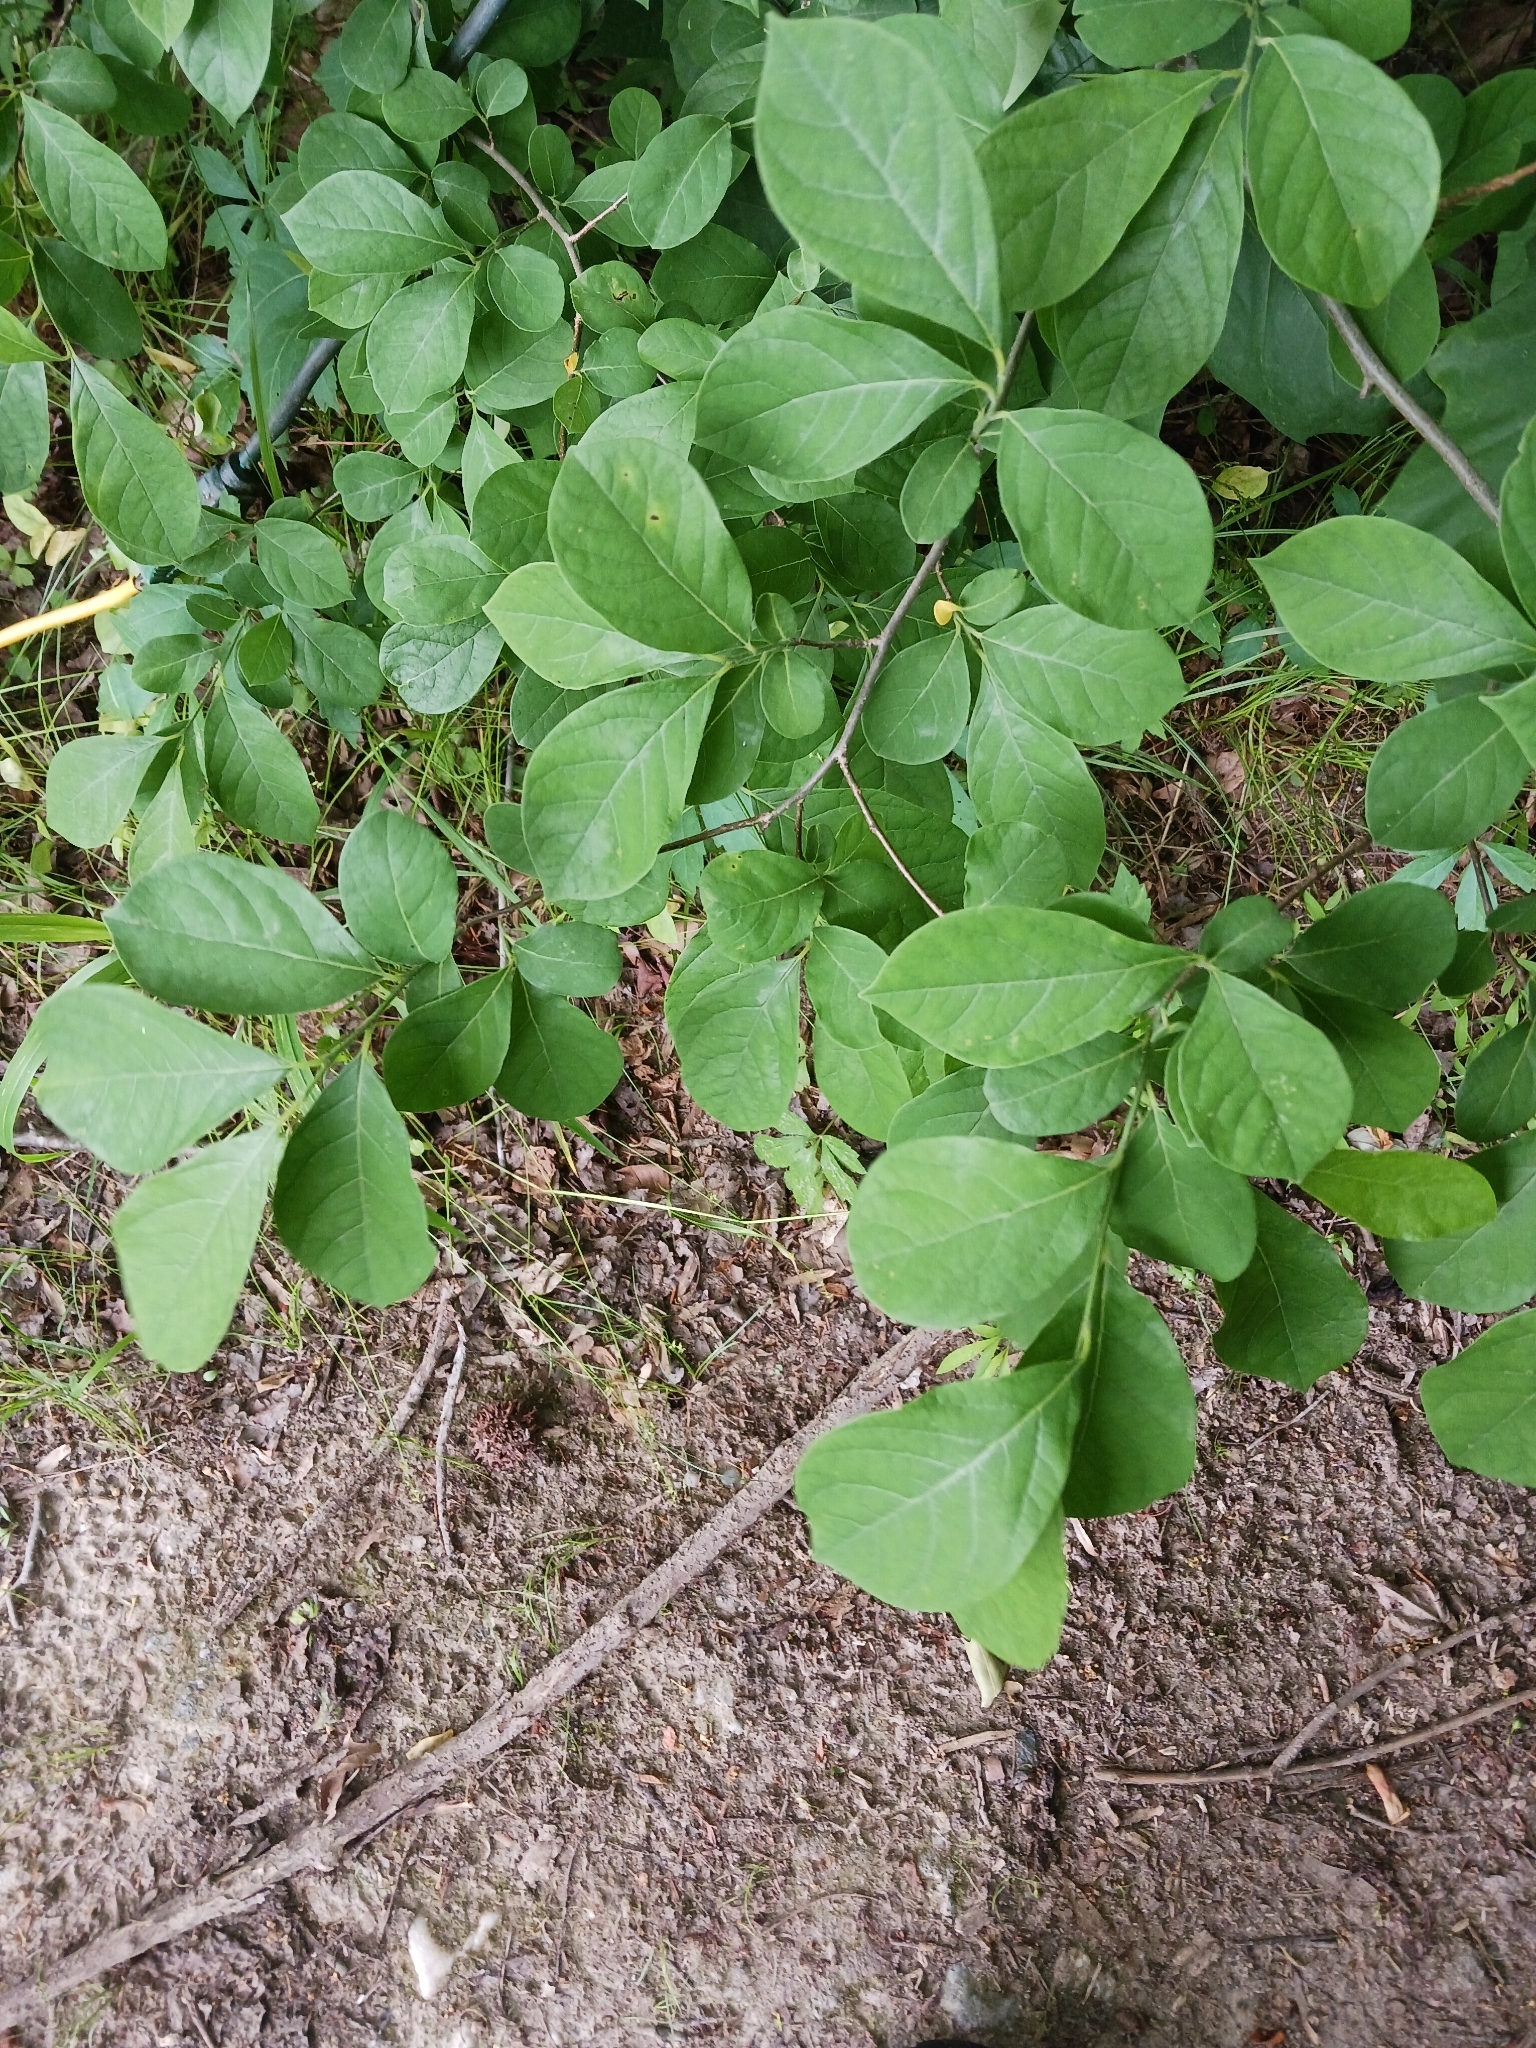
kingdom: Plantae
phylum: Tracheophyta
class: Magnoliopsida
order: Laurales
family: Lauraceae
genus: Lindera
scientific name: Lindera benzoin
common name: Spicebush
